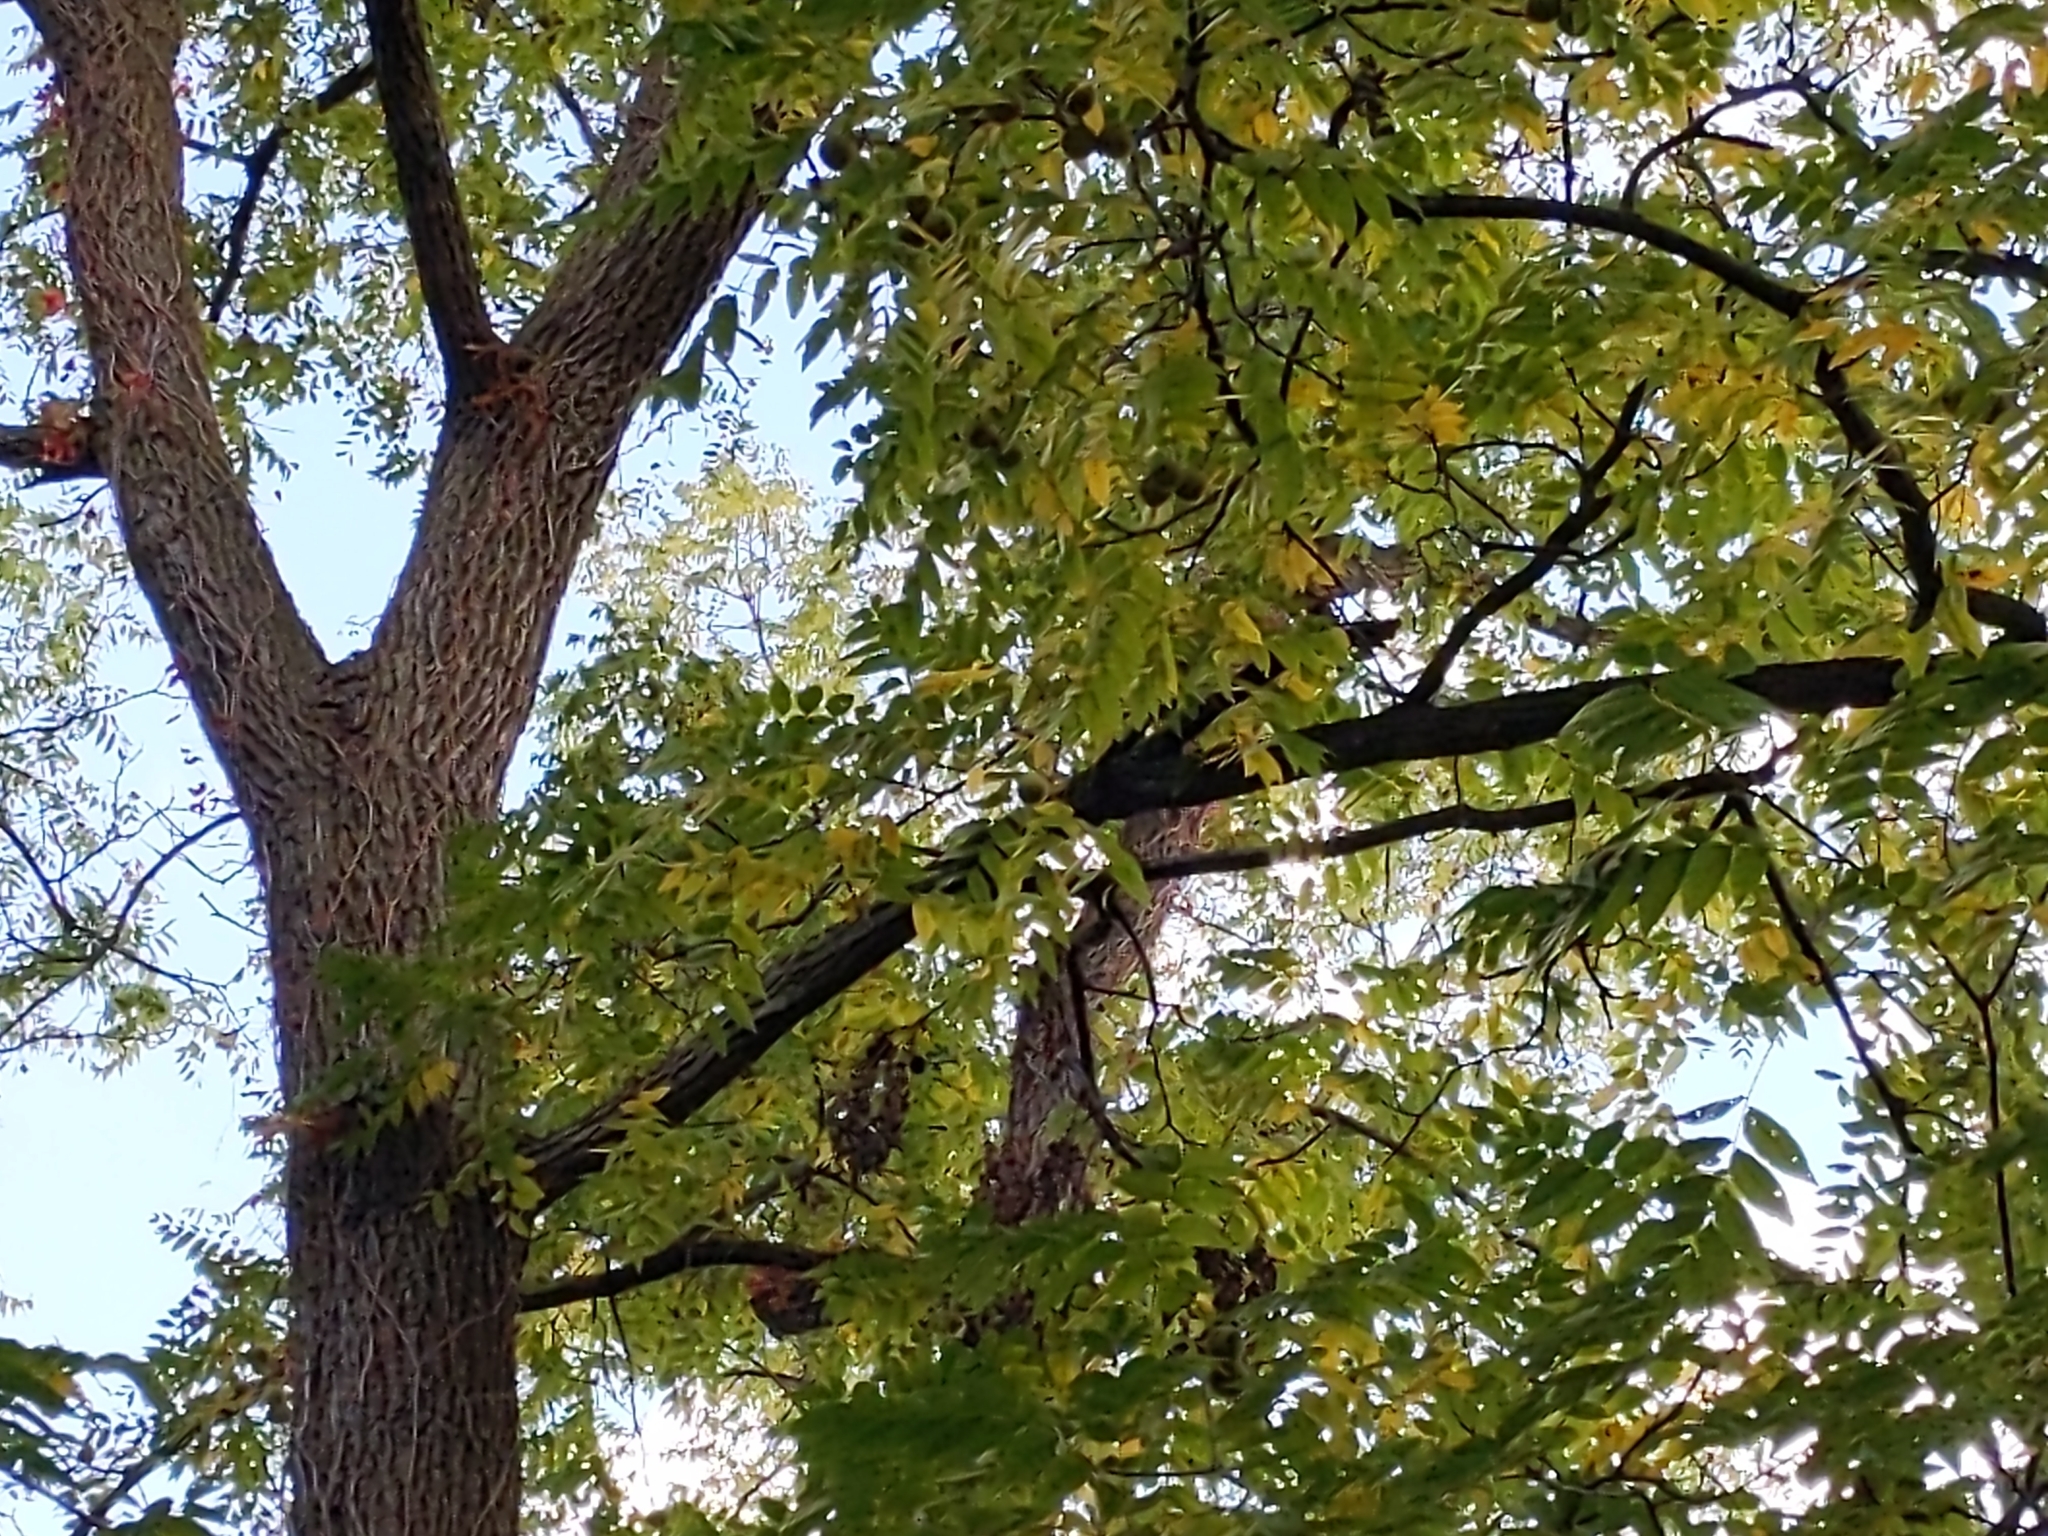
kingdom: Plantae
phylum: Tracheophyta
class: Magnoliopsida
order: Fagales
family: Juglandaceae
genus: Juglans
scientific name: Juglans nigra
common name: Black walnut
